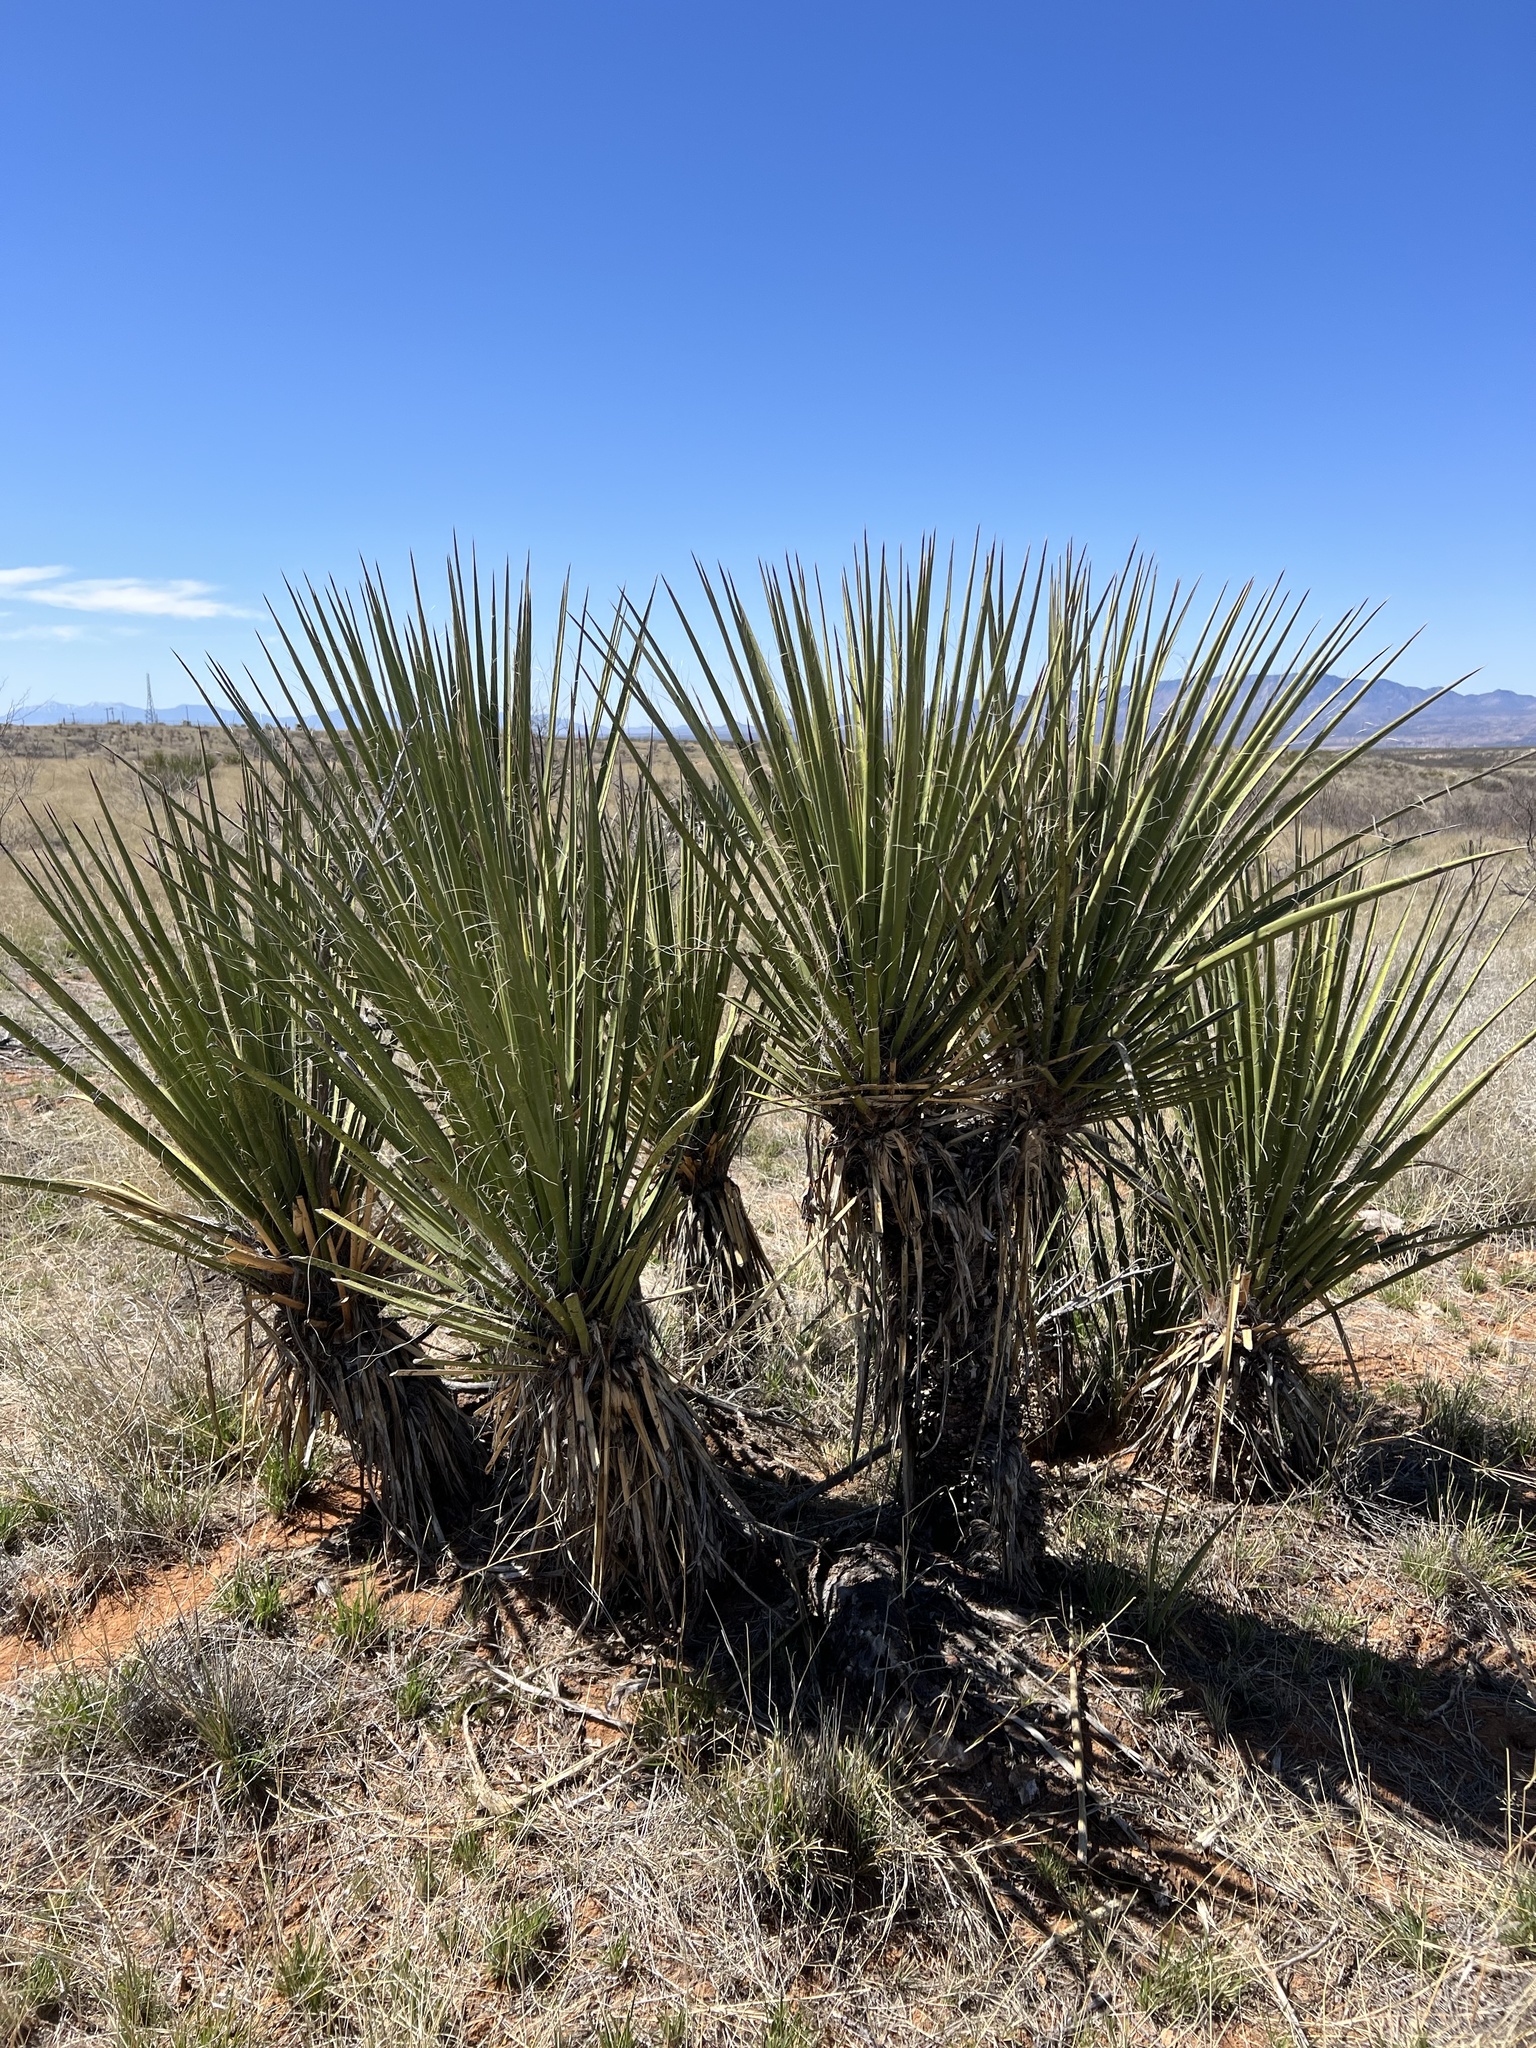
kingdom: Plantae
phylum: Tracheophyta
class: Liliopsida
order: Asparagales
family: Asparagaceae
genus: Yucca
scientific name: Yucca baccata
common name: Banana yucca
